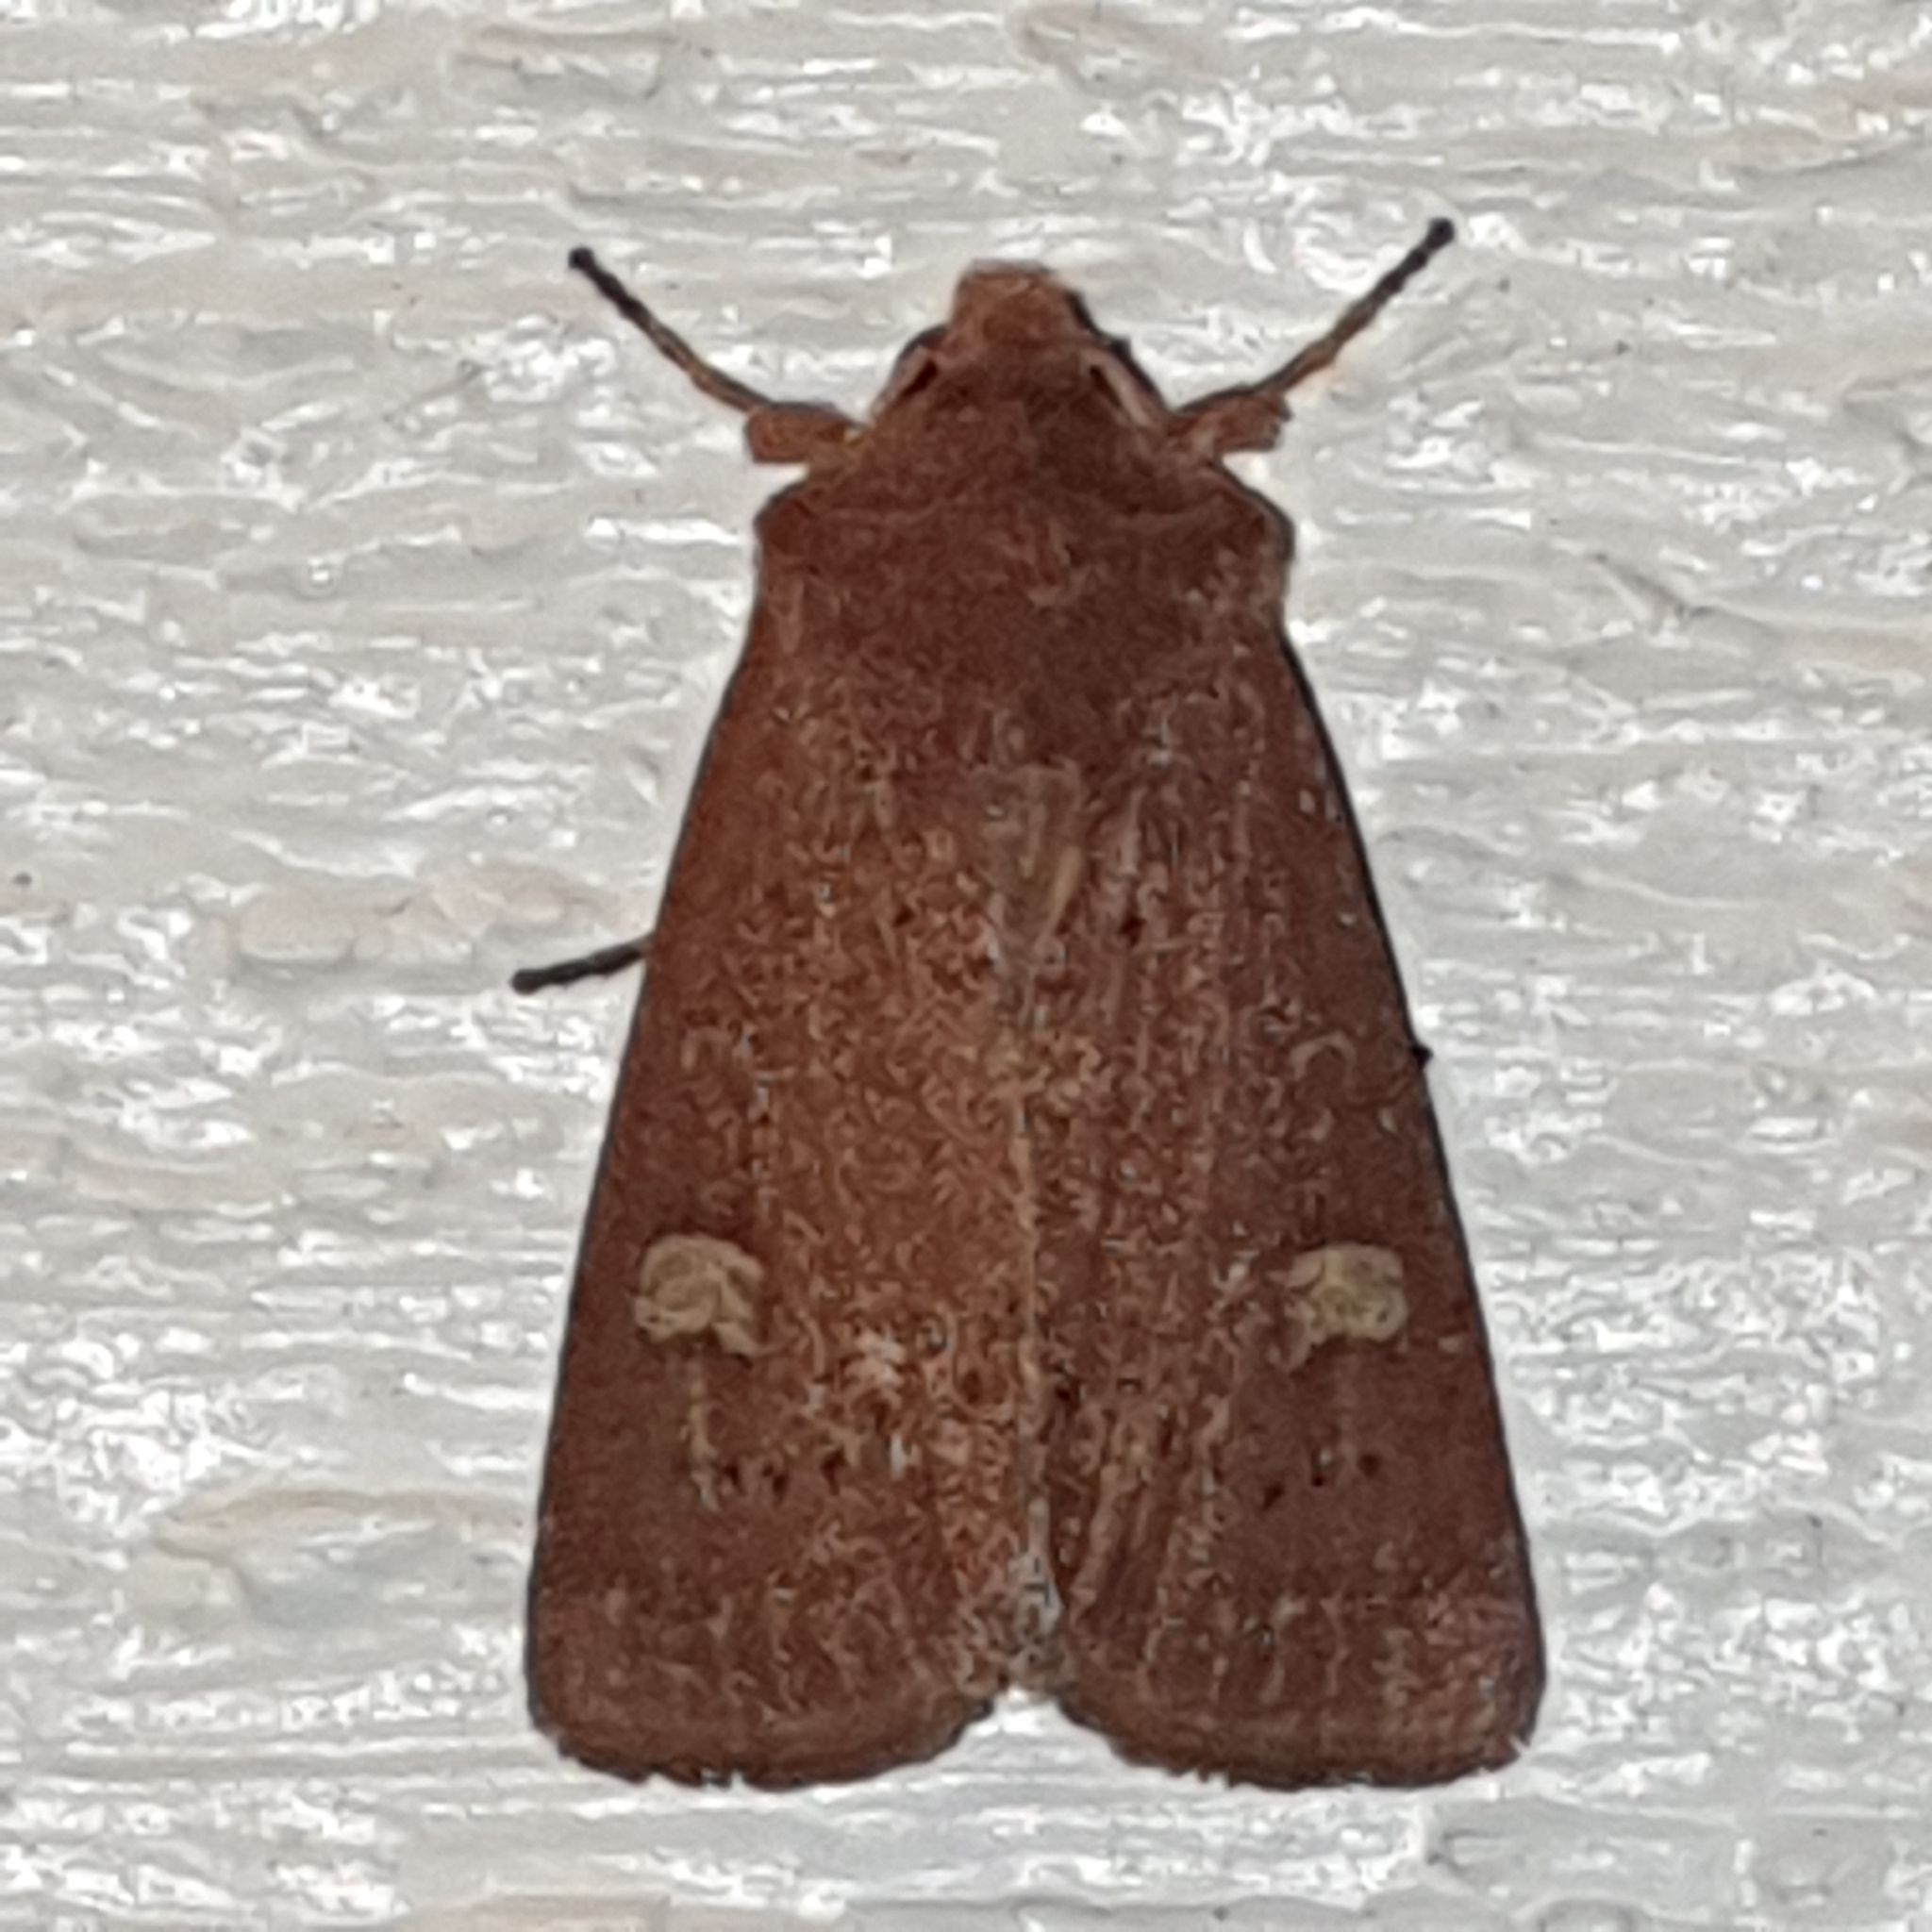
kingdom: Animalia
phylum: Arthropoda
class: Insecta
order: Lepidoptera
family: Noctuidae
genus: Xestia
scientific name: Xestia xanthographa
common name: Square-spot rustic
